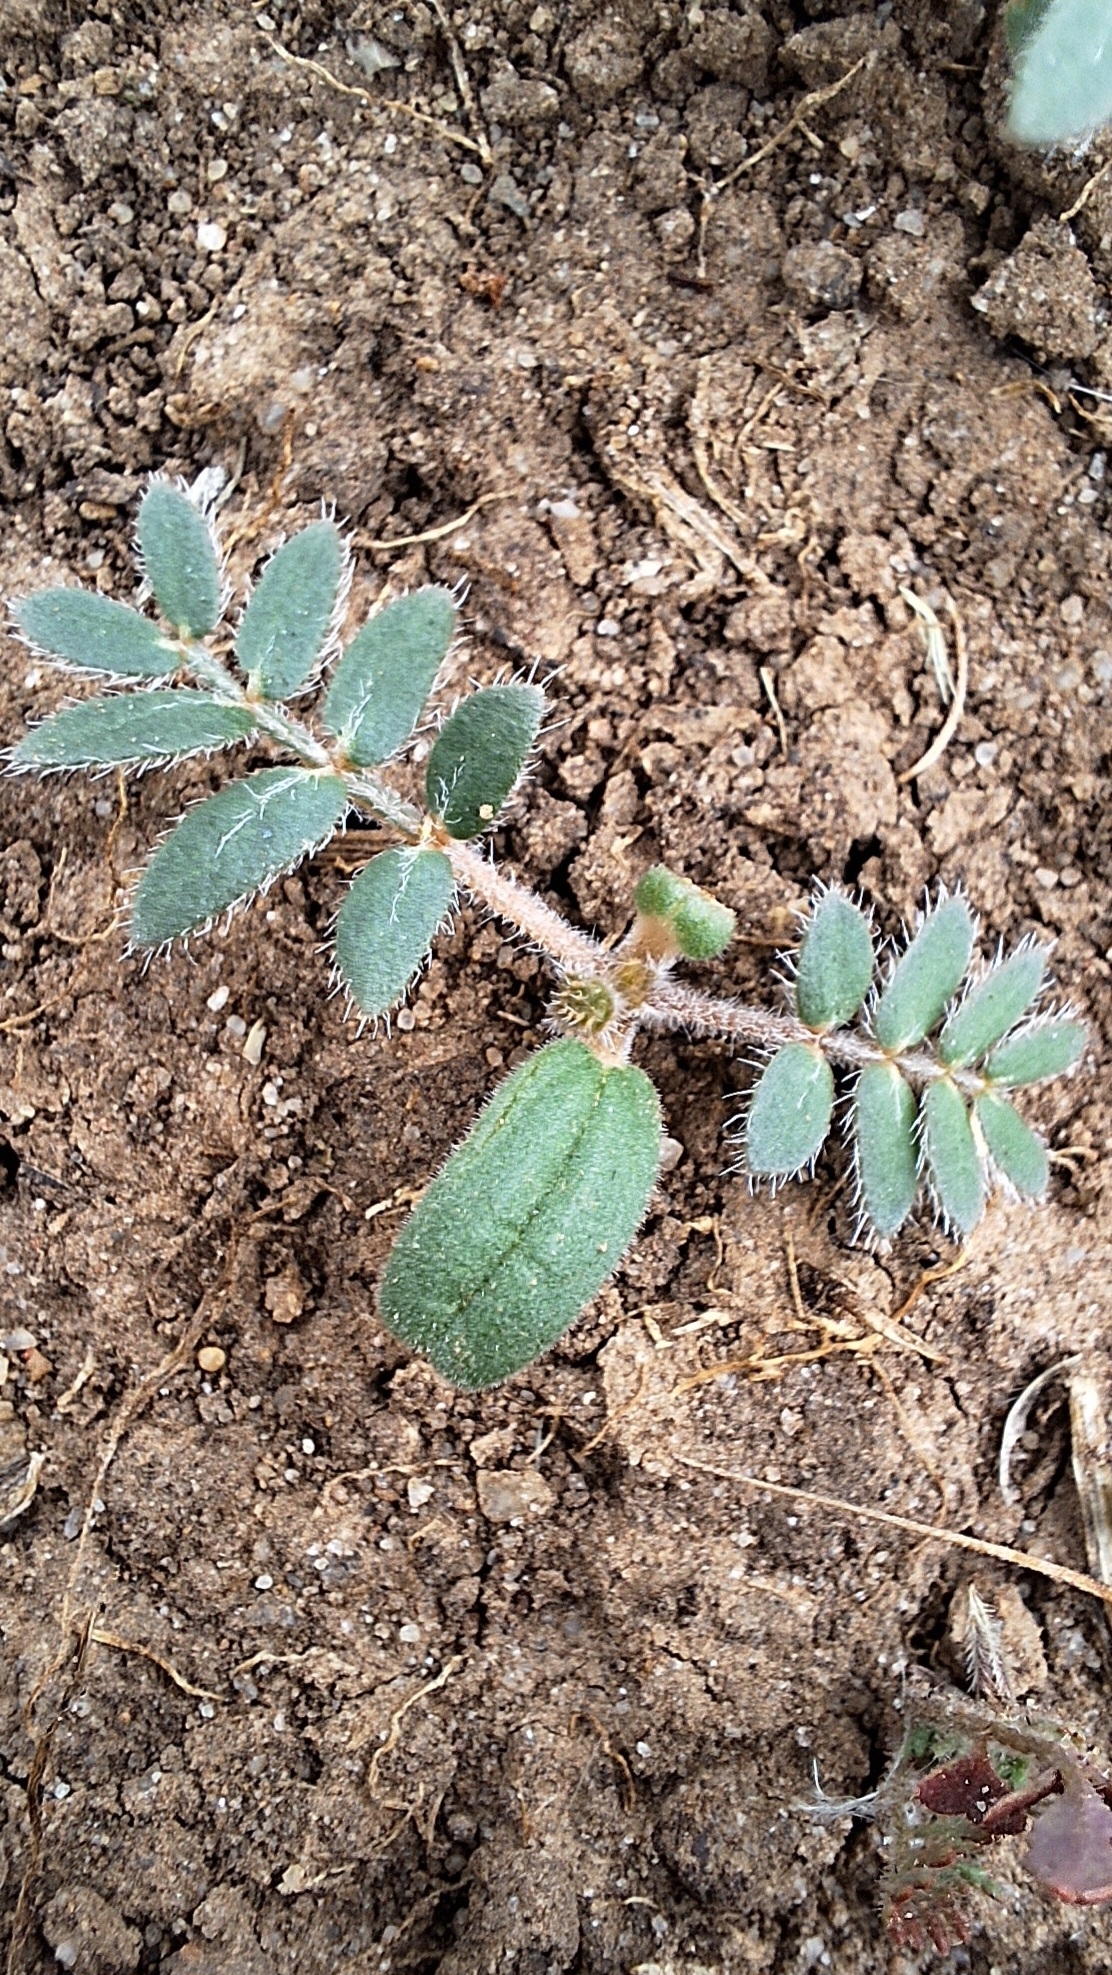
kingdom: Plantae
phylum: Tracheophyta
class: Magnoliopsida
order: Zygophyllales
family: Zygophyllaceae
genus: Tribulus
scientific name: Tribulus terrestris
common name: Puncturevine
